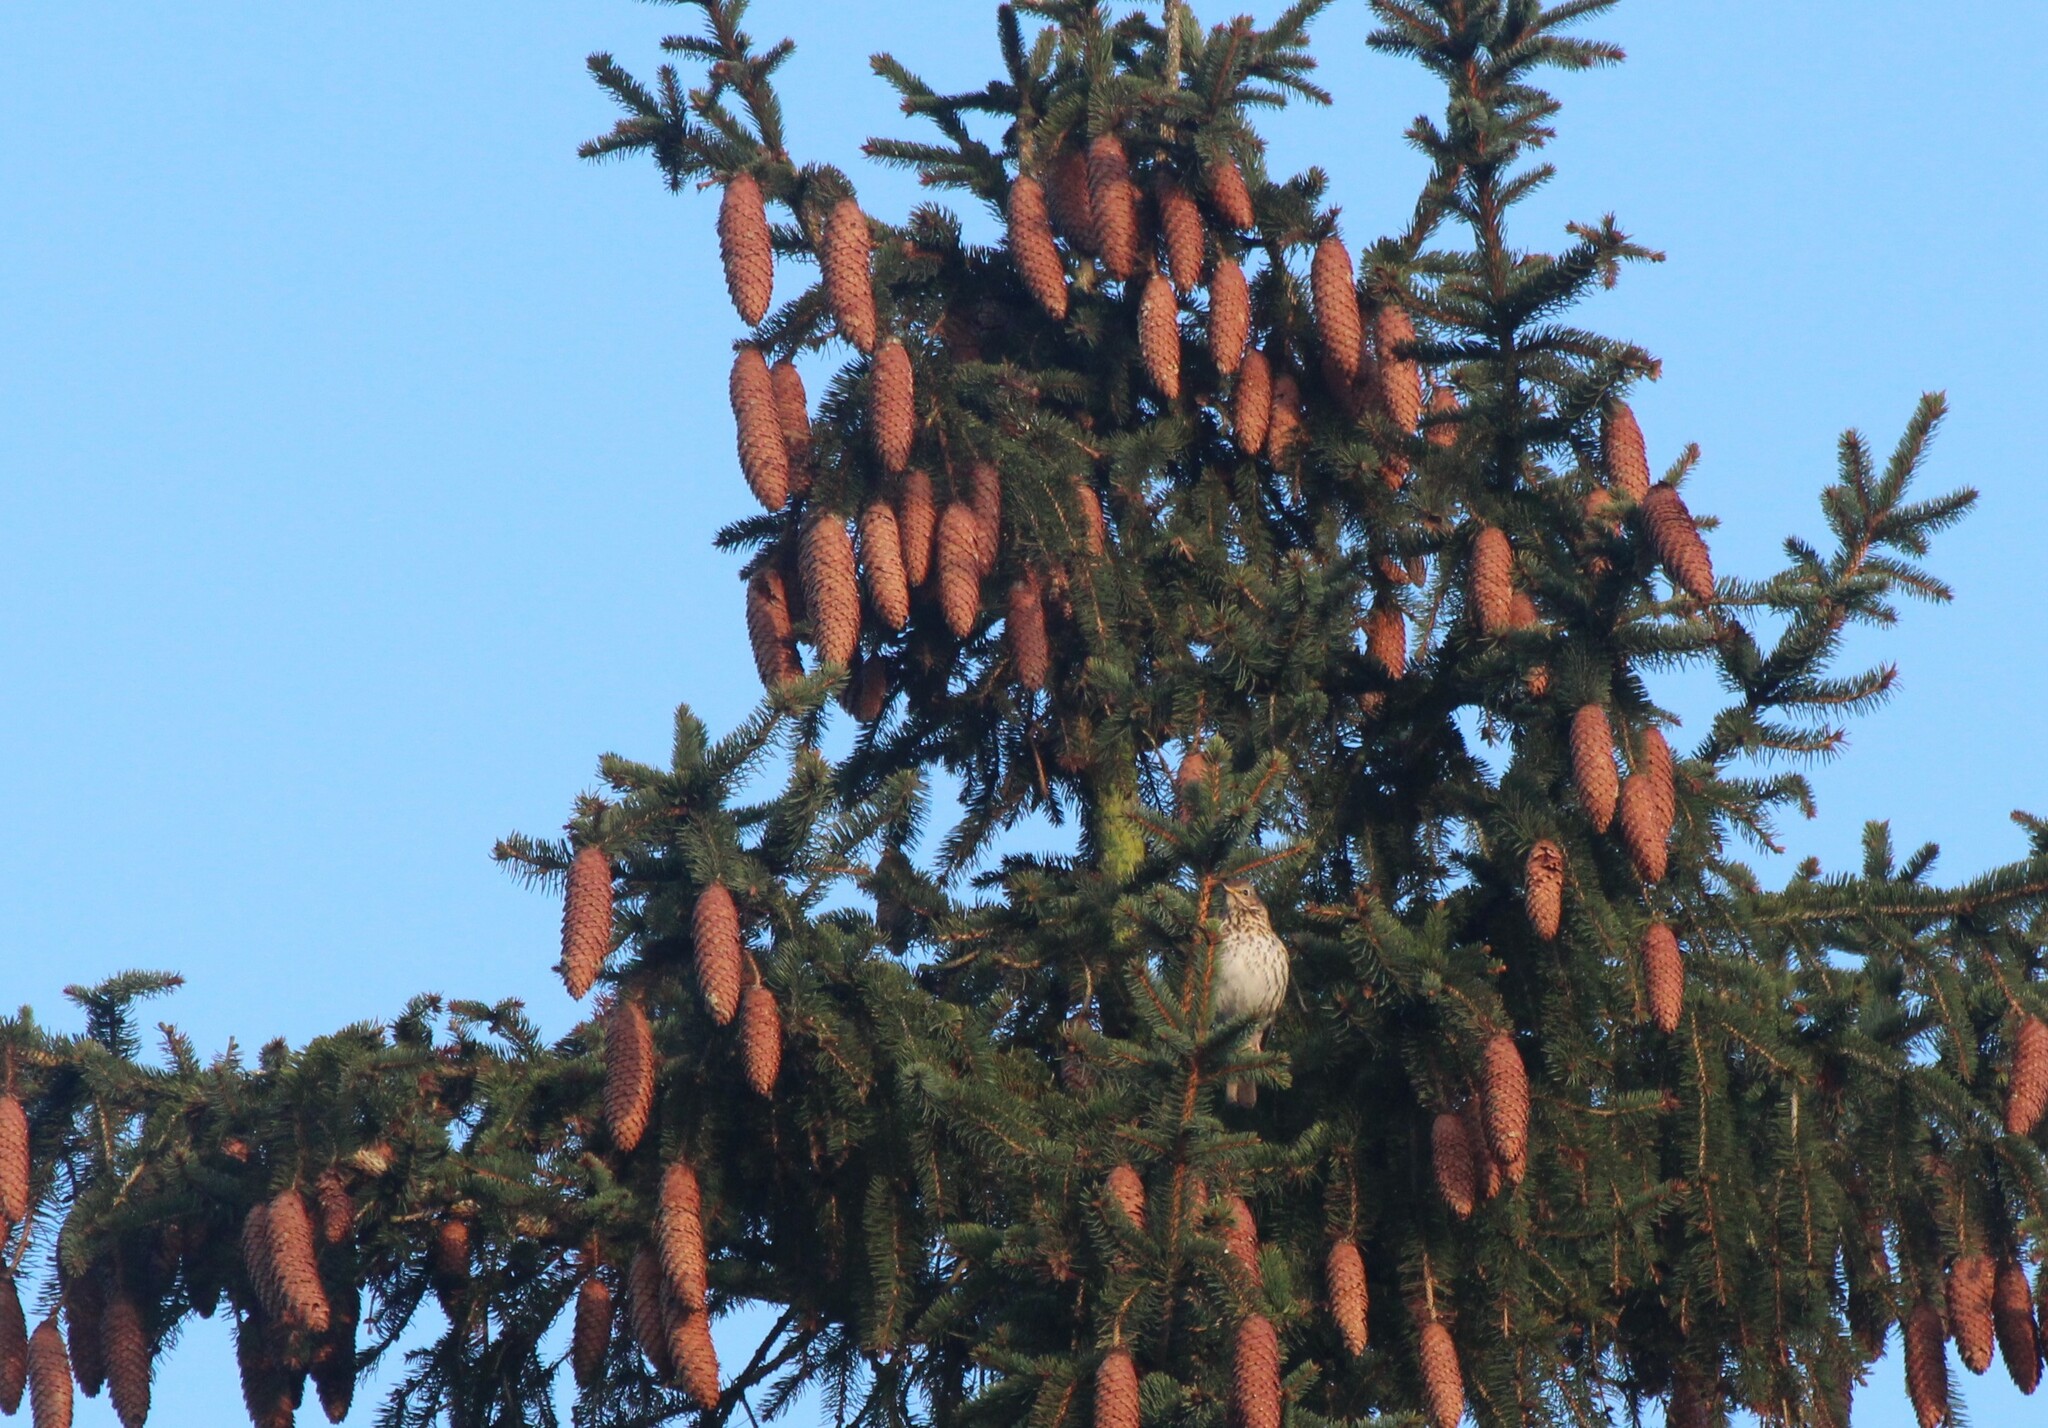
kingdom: Animalia
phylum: Chordata
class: Aves
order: Passeriformes
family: Turdidae
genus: Turdus
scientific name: Turdus philomelos
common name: Song thrush
